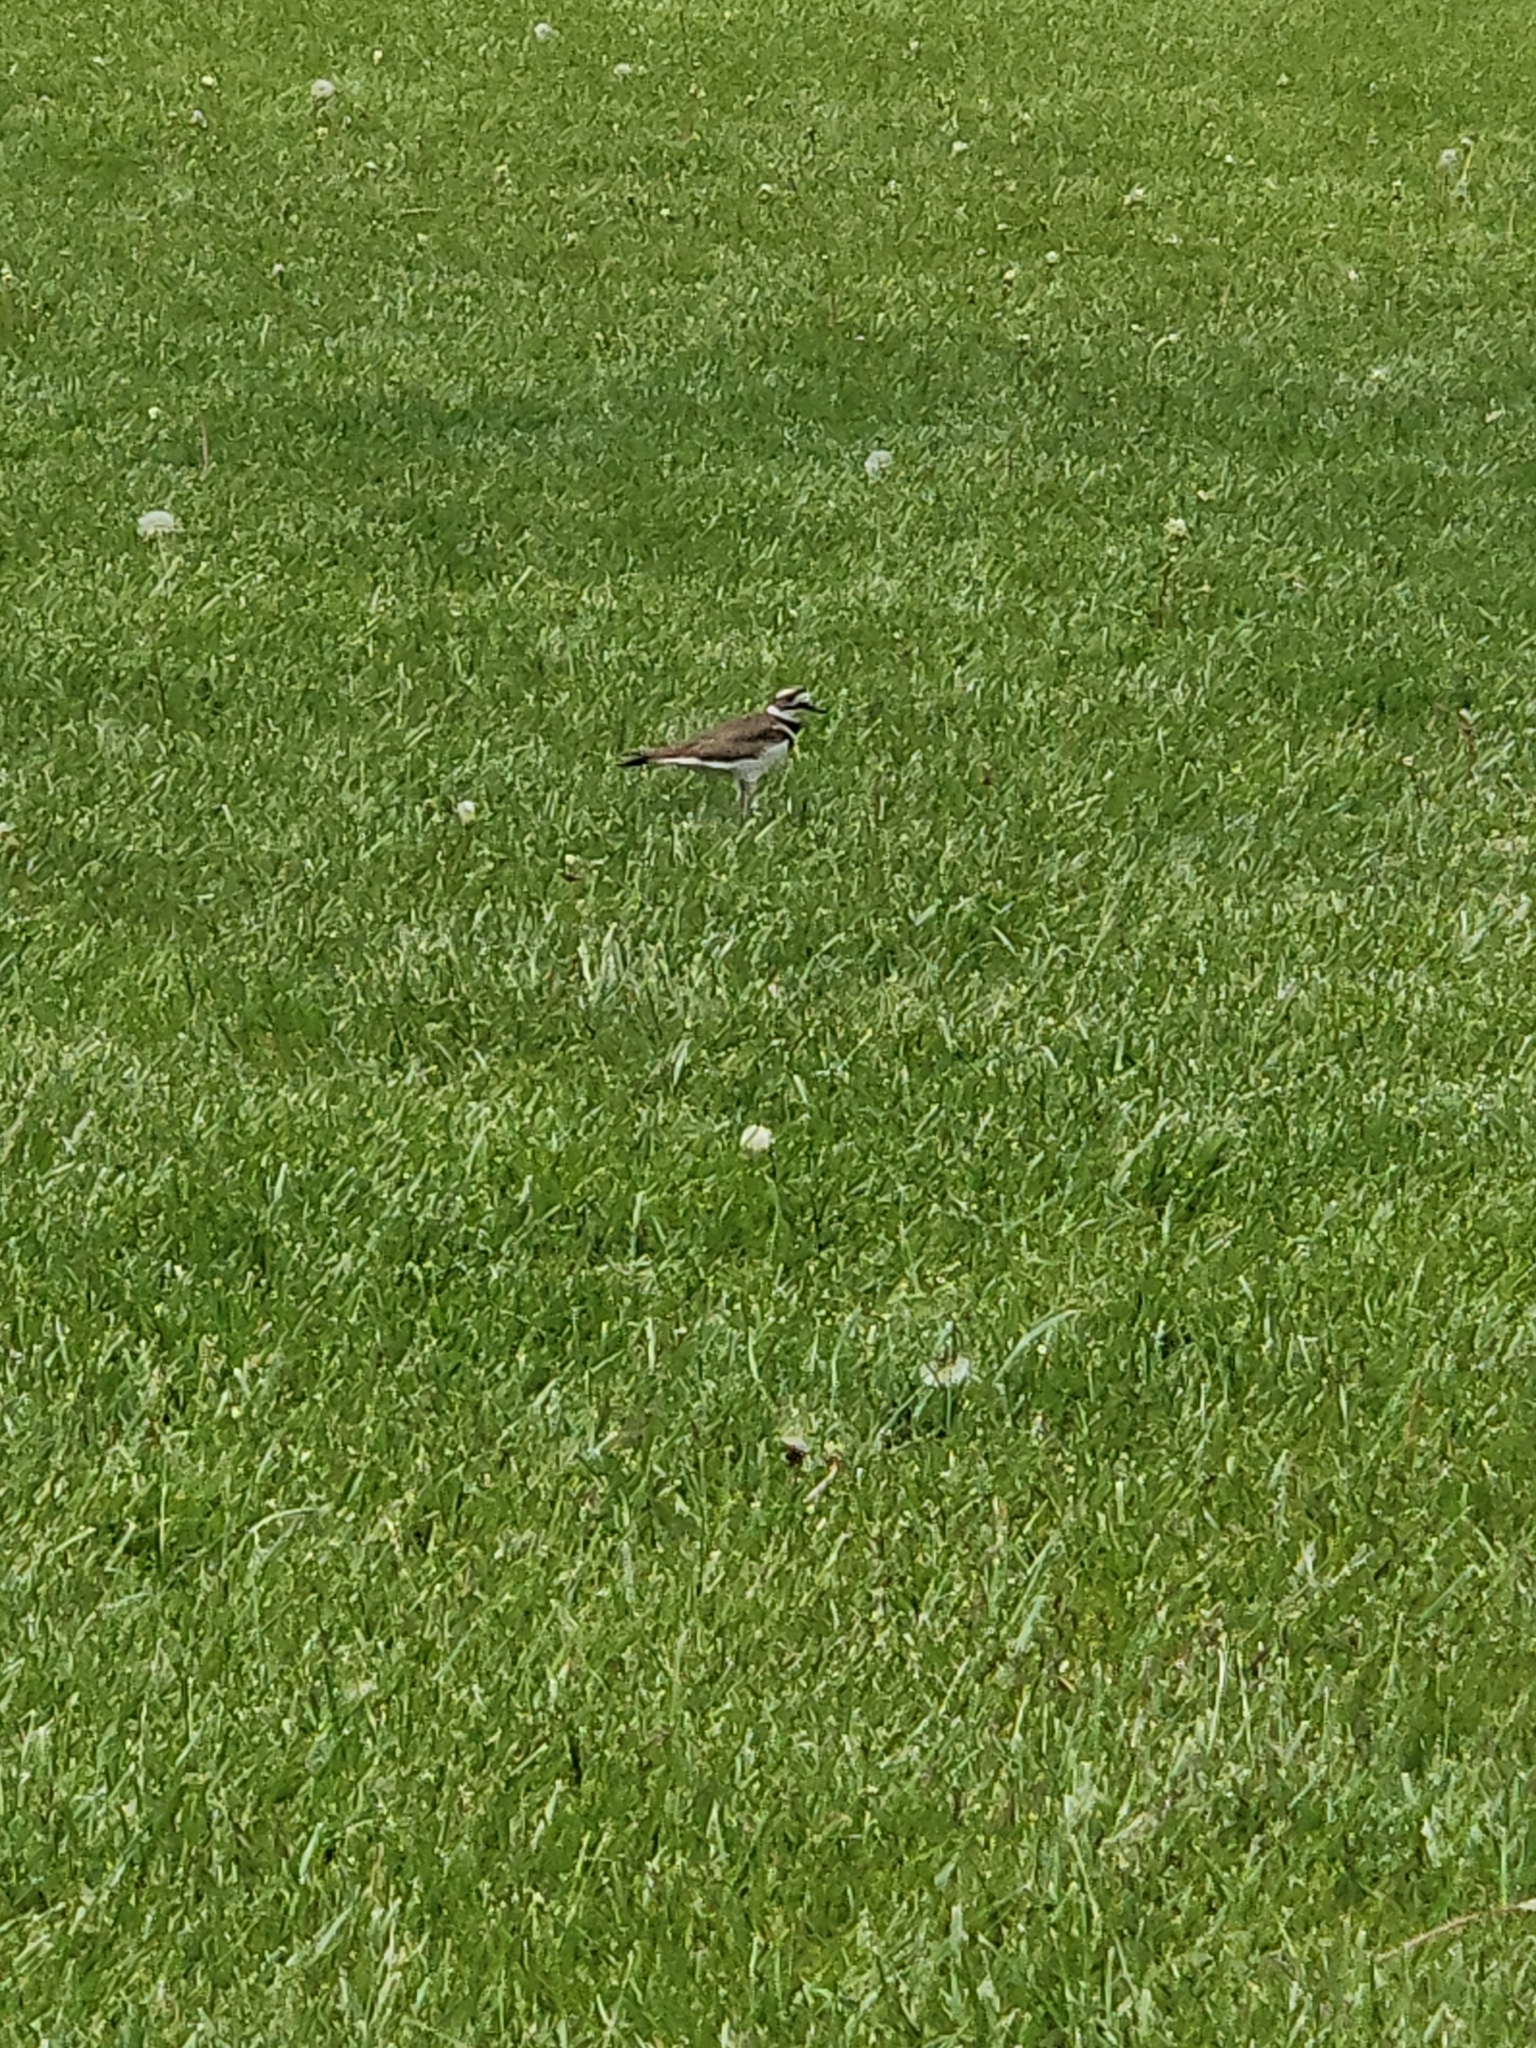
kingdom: Animalia
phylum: Chordata
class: Aves
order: Charadriiformes
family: Charadriidae
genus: Charadrius
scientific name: Charadrius vociferus
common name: Killdeer
